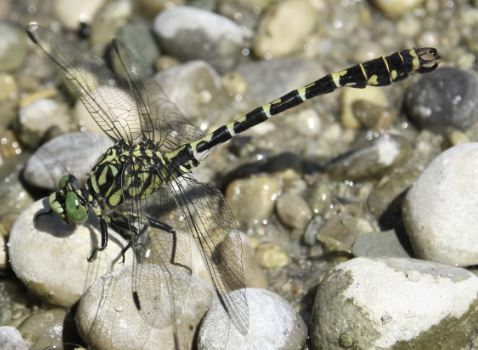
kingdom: Animalia
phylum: Arthropoda
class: Insecta
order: Odonata
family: Gomphidae
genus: Onychogomphus
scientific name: Onychogomphus forcipatus
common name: Small pincertail
